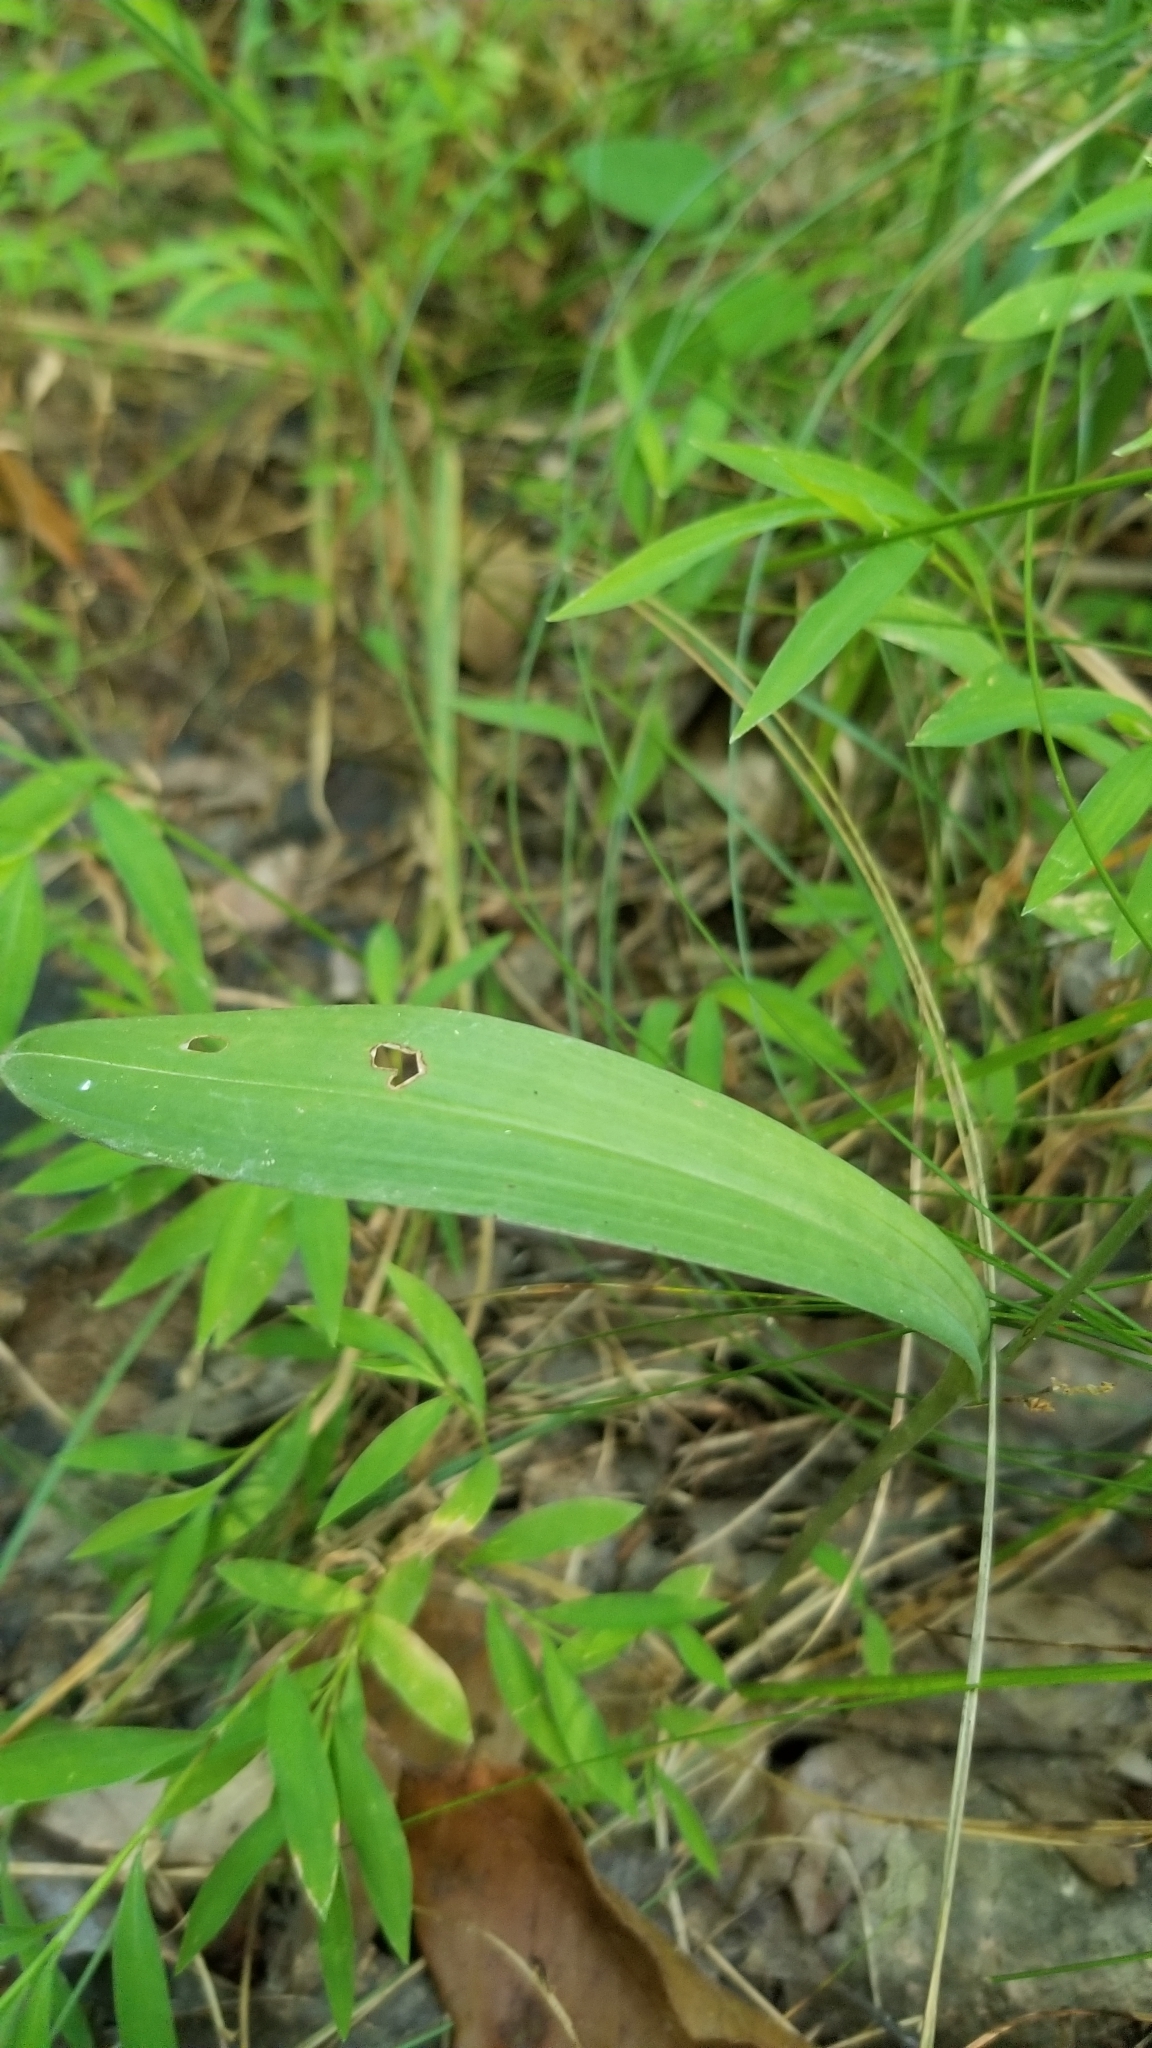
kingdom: Plantae
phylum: Tracheophyta
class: Liliopsida
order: Asparagales
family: Orchidaceae
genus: Platanthera
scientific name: Platanthera clavellata
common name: Club-spur orchid
